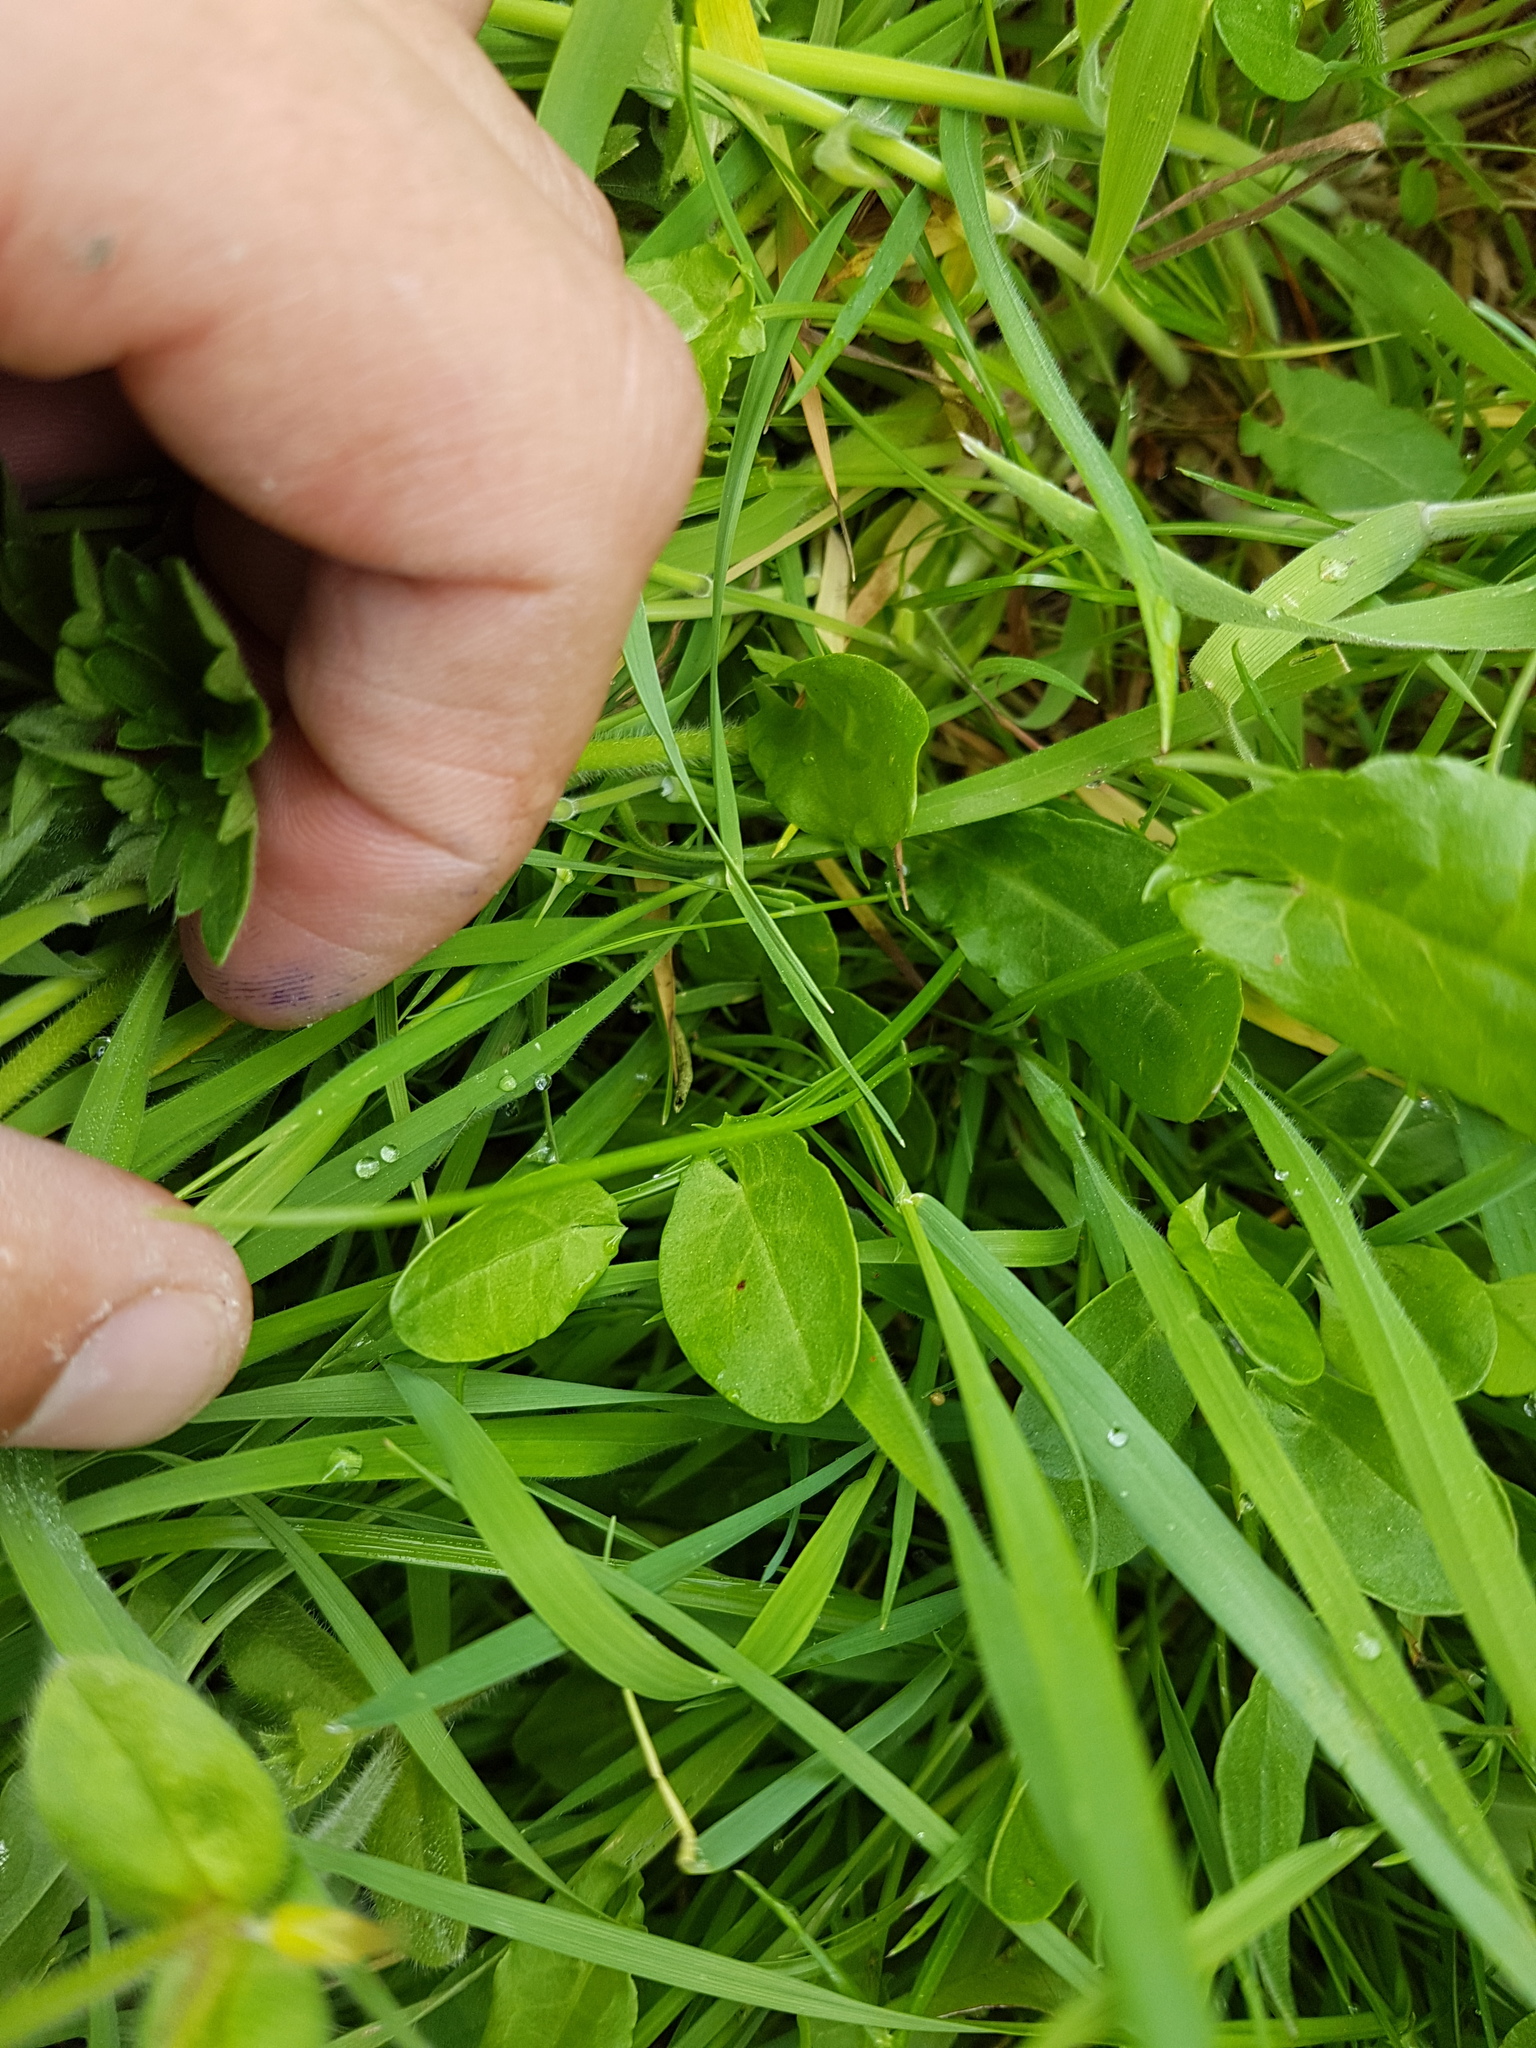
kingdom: Plantae
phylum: Tracheophyta
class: Magnoliopsida
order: Solanales
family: Convolvulaceae
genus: Convolvulus
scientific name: Convolvulus arvensis
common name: Field bindweed
